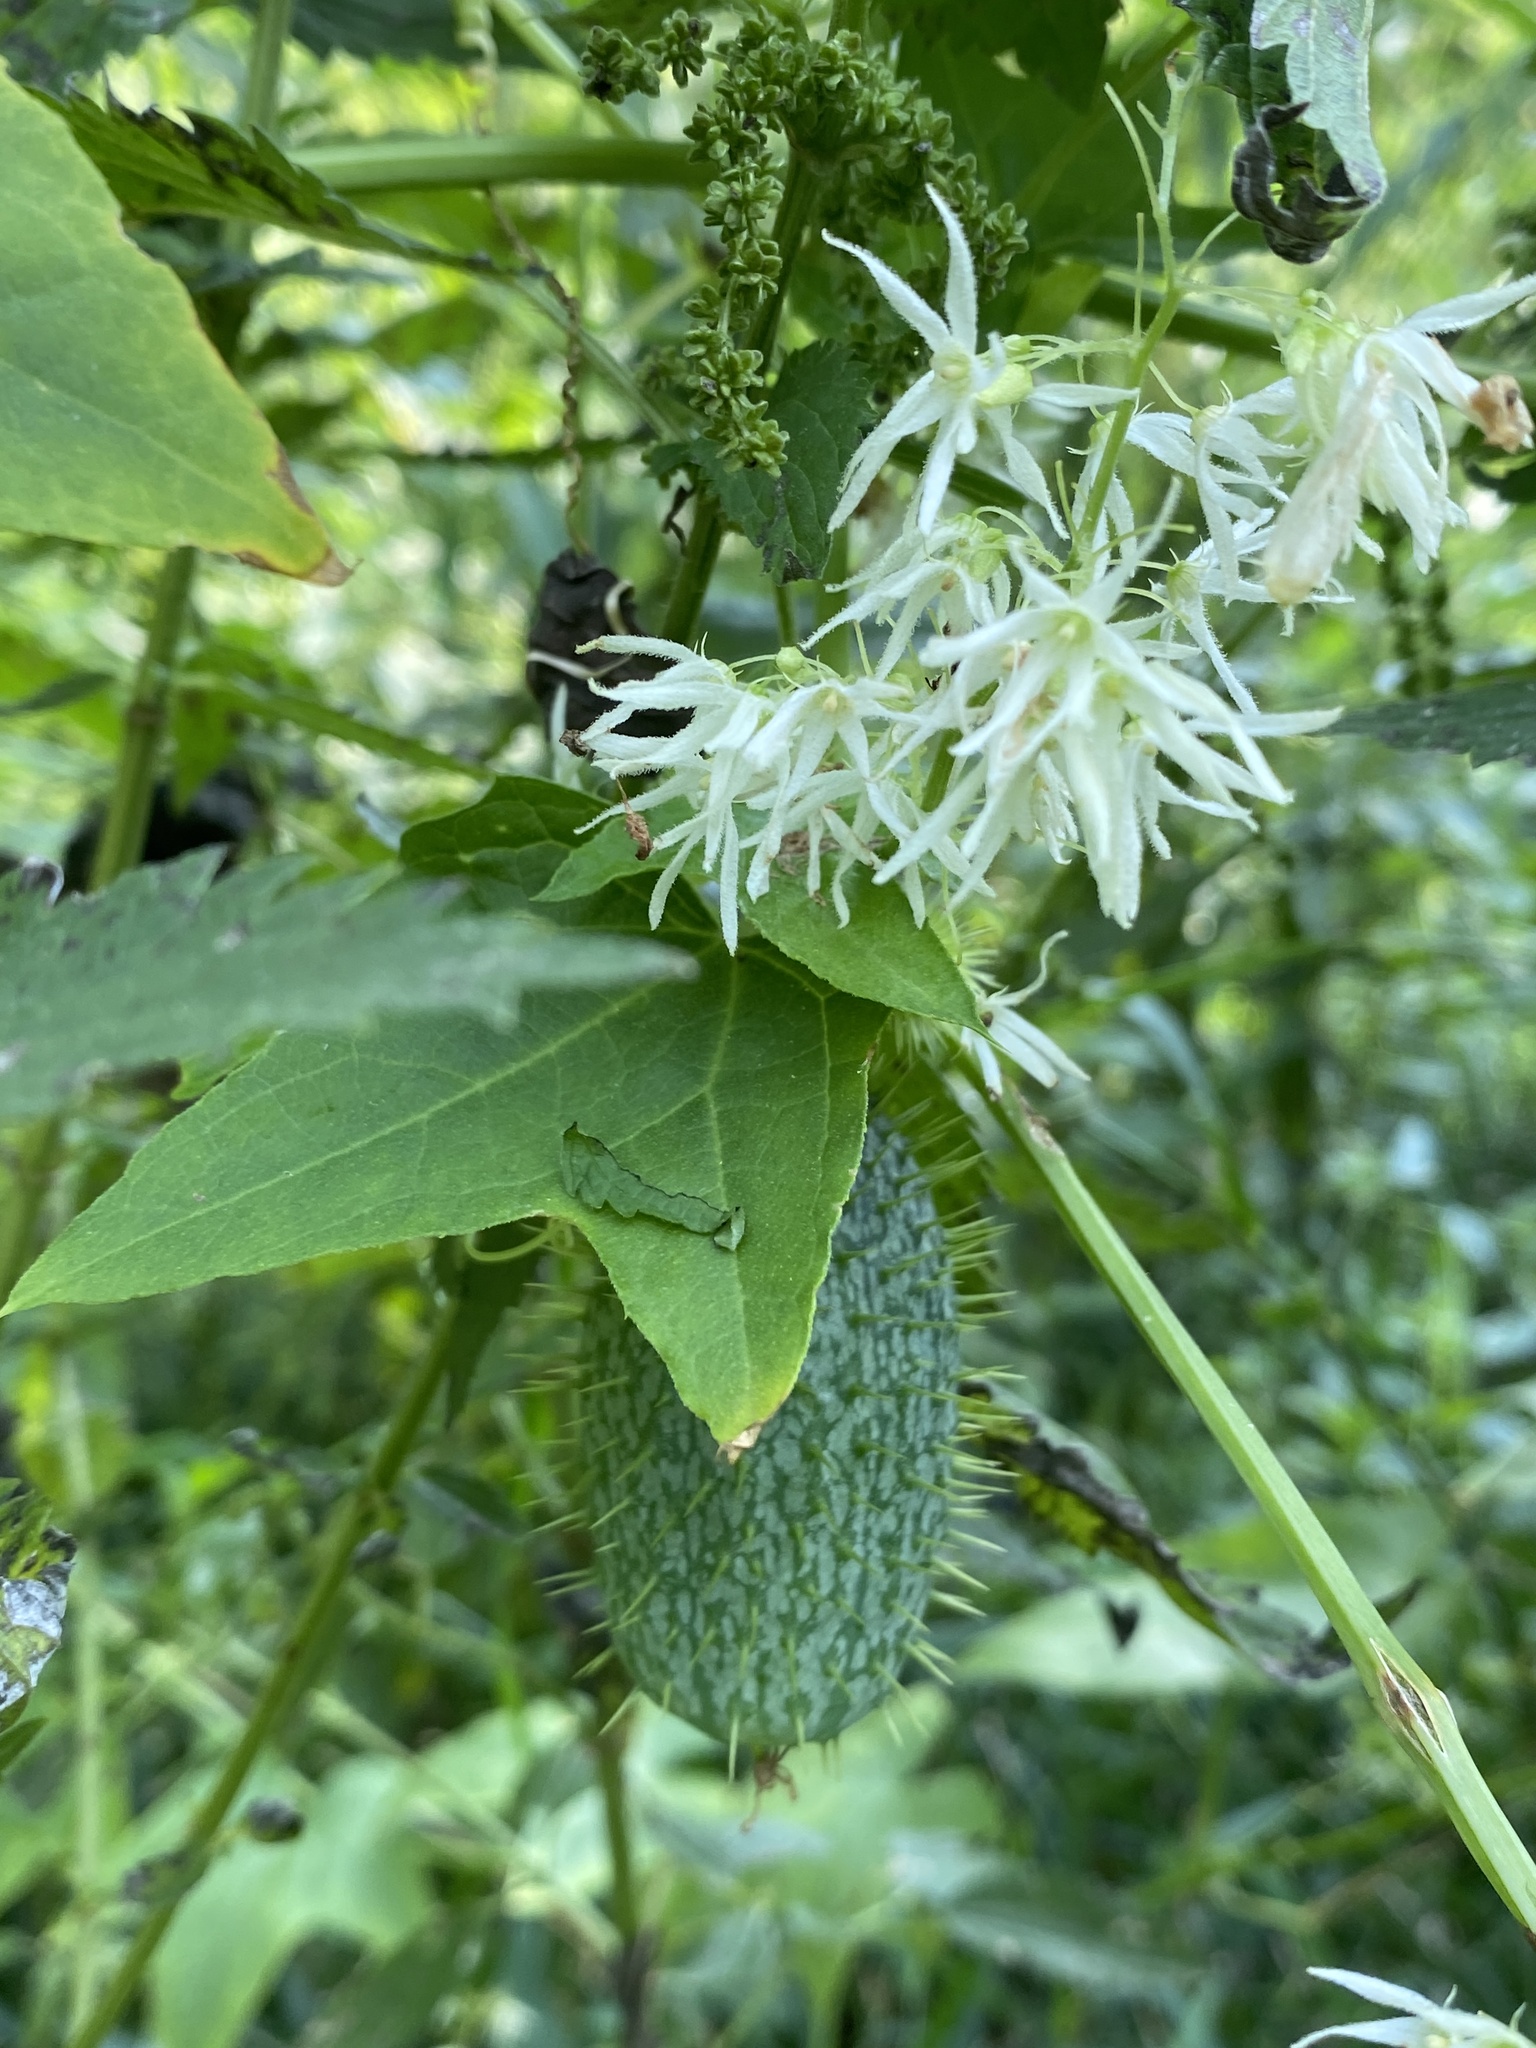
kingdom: Plantae
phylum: Tracheophyta
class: Magnoliopsida
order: Cucurbitales
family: Cucurbitaceae
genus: Echinocystis
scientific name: Echinocystis lobata
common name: Wild cucumber
